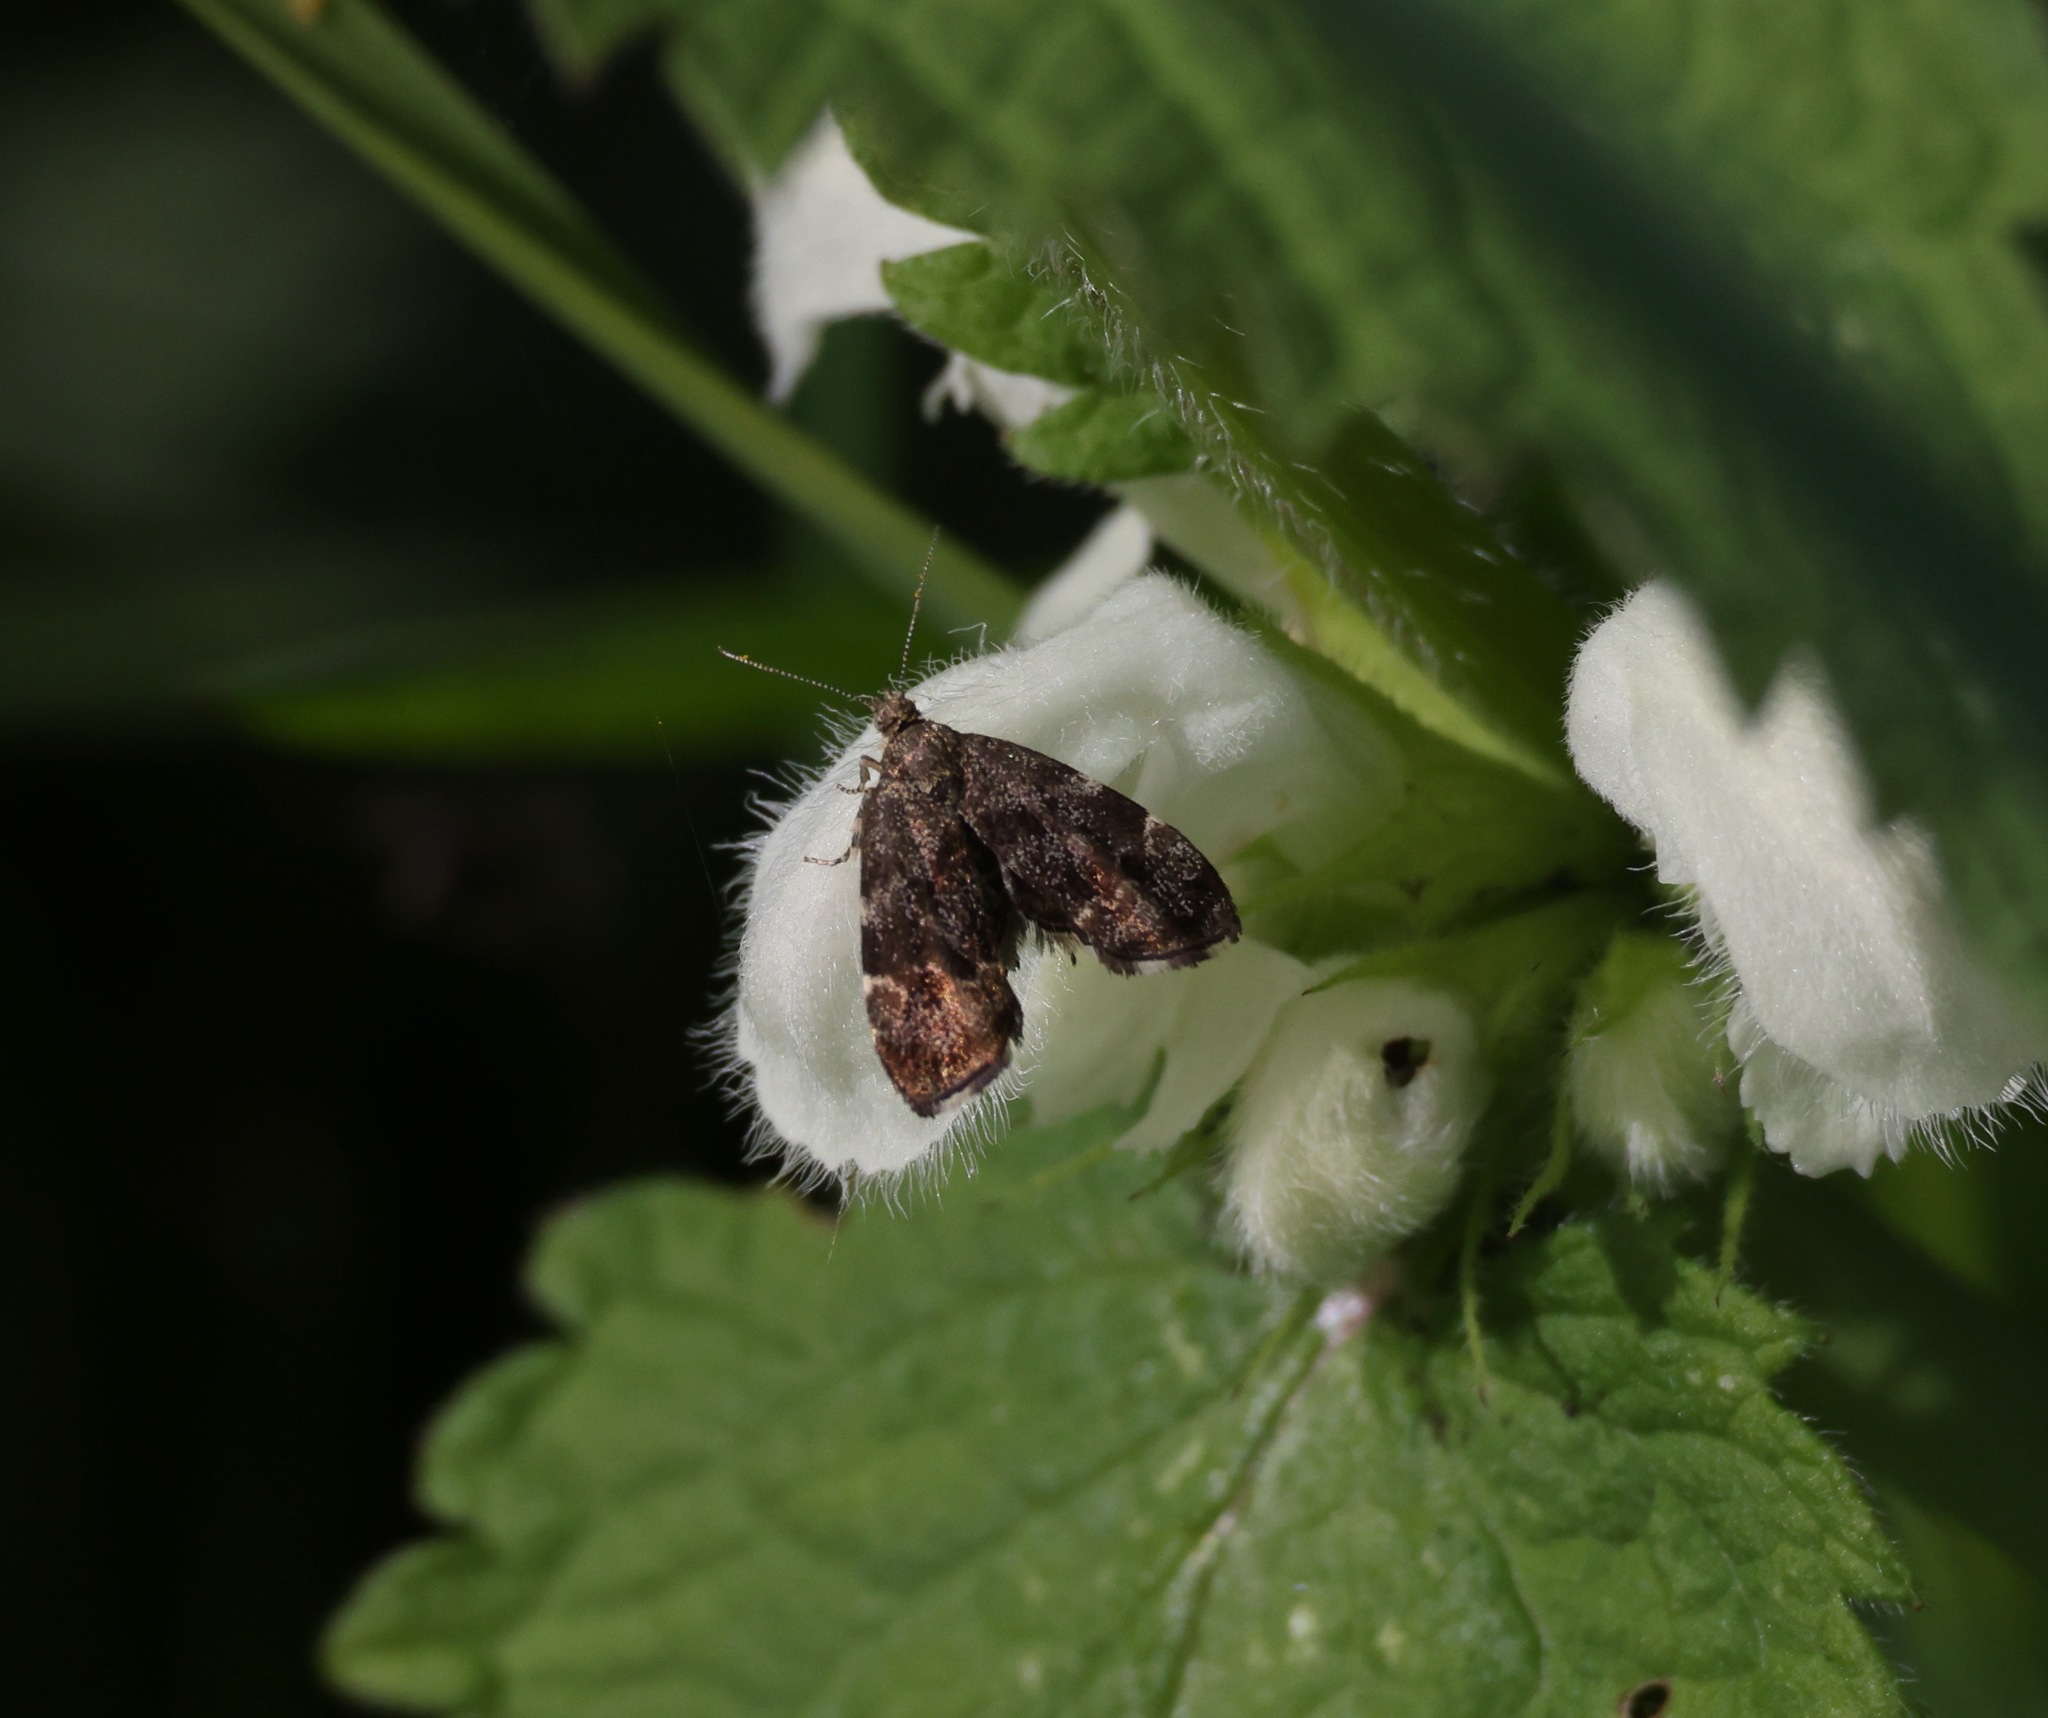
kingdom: Animalia
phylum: Arthropoda
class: Insecta
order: Lepidoptera
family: Choreutidae
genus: Anthophila
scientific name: Anthophila fabriciana
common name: Nettle-tap
